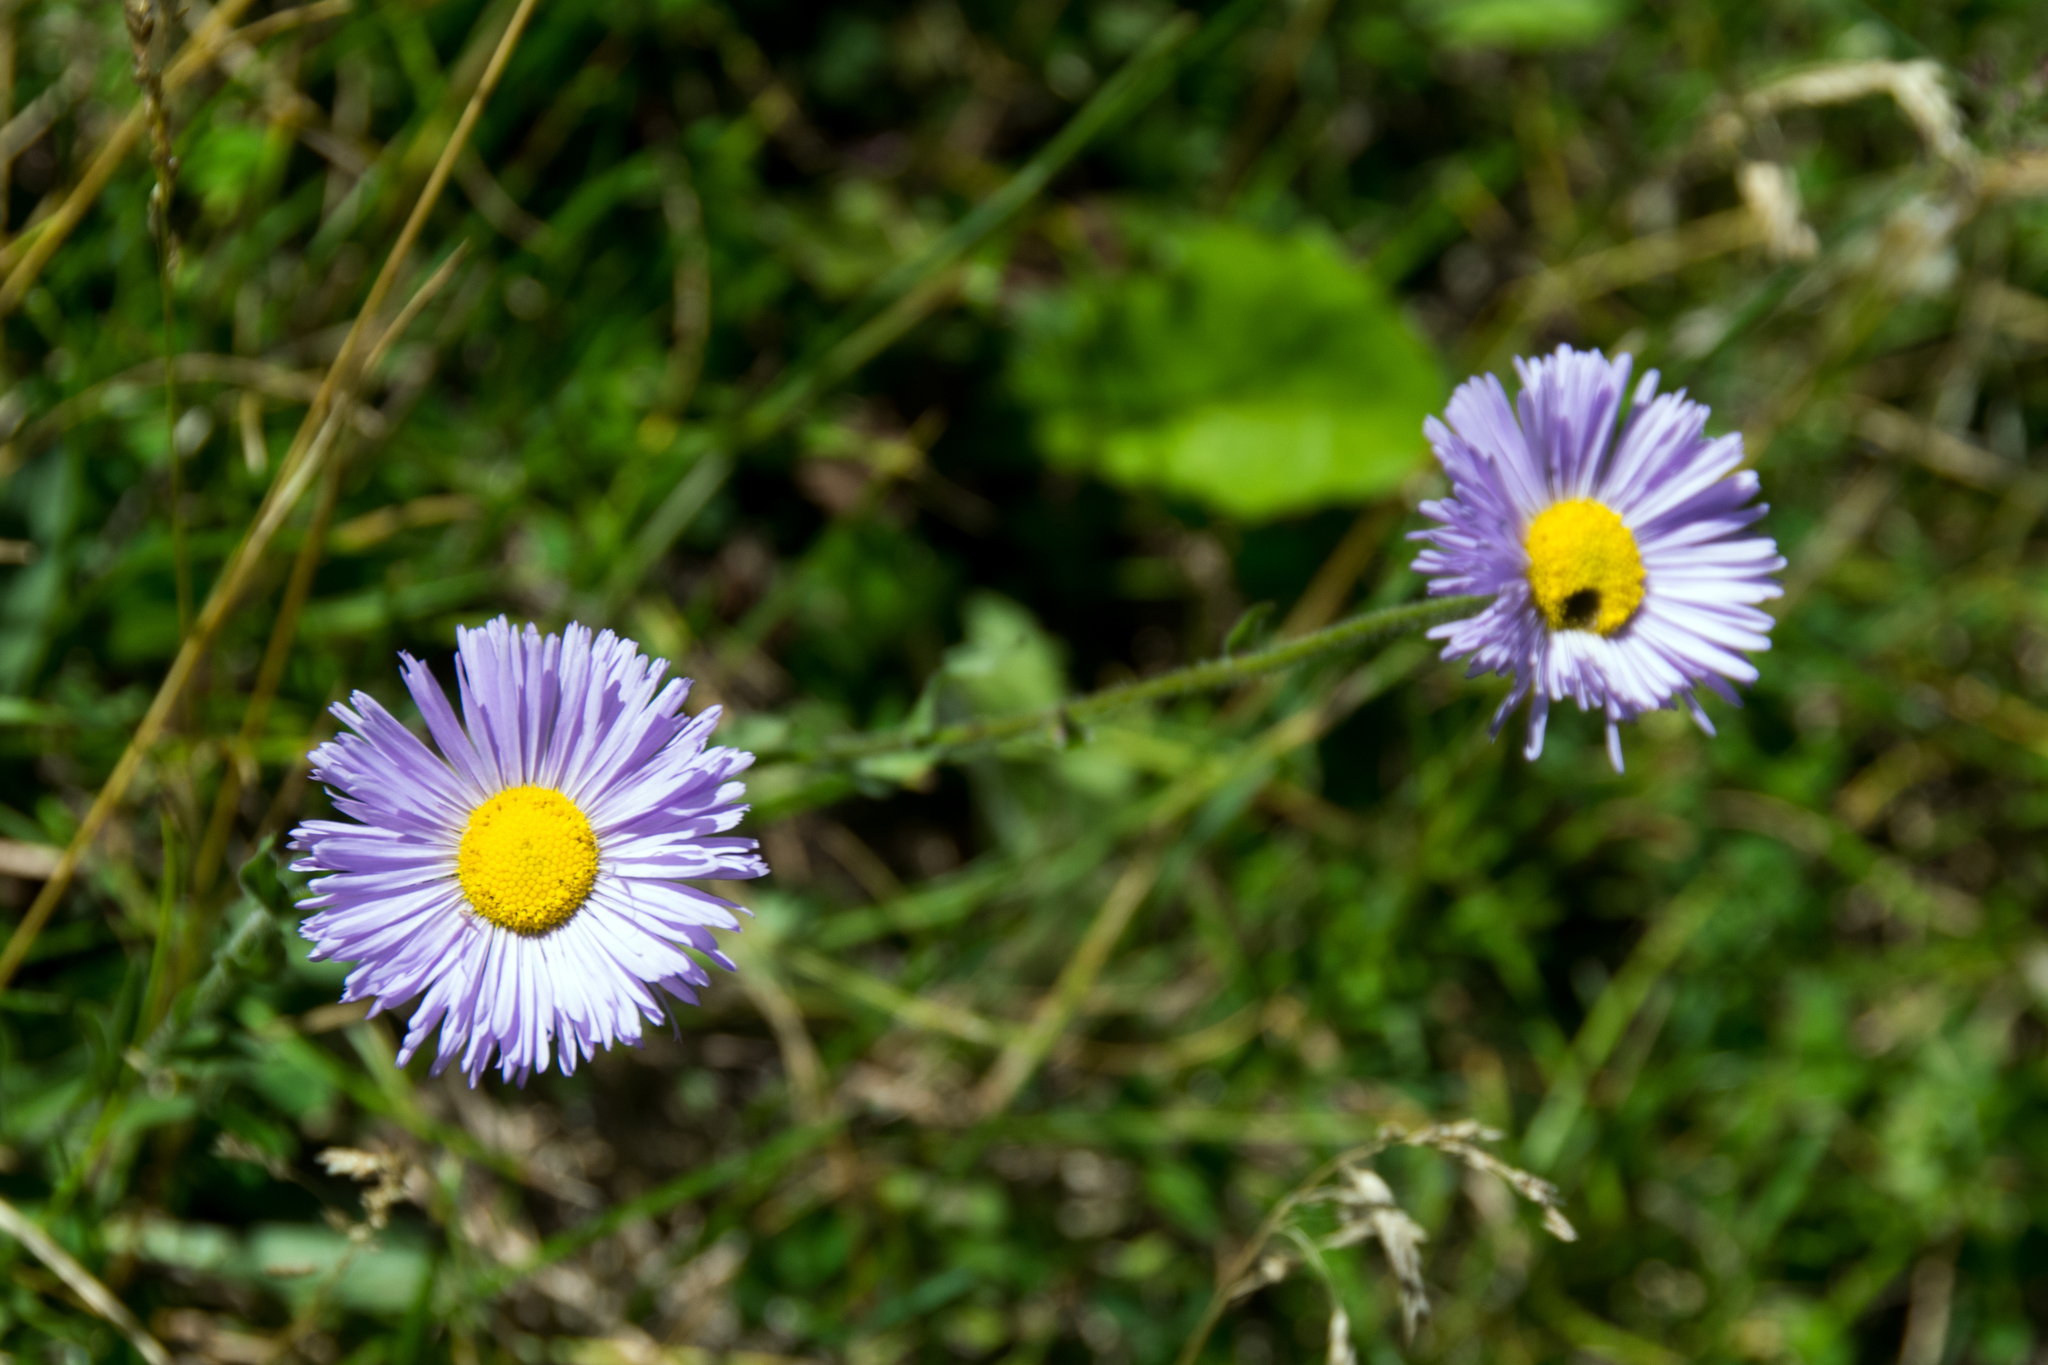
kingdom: Plantae
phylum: Tracheophyta
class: Magnoliopsida
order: Asterales
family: Asteraceae
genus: Erigeron
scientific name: Erigeron speciosus
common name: Aspen fleabane
